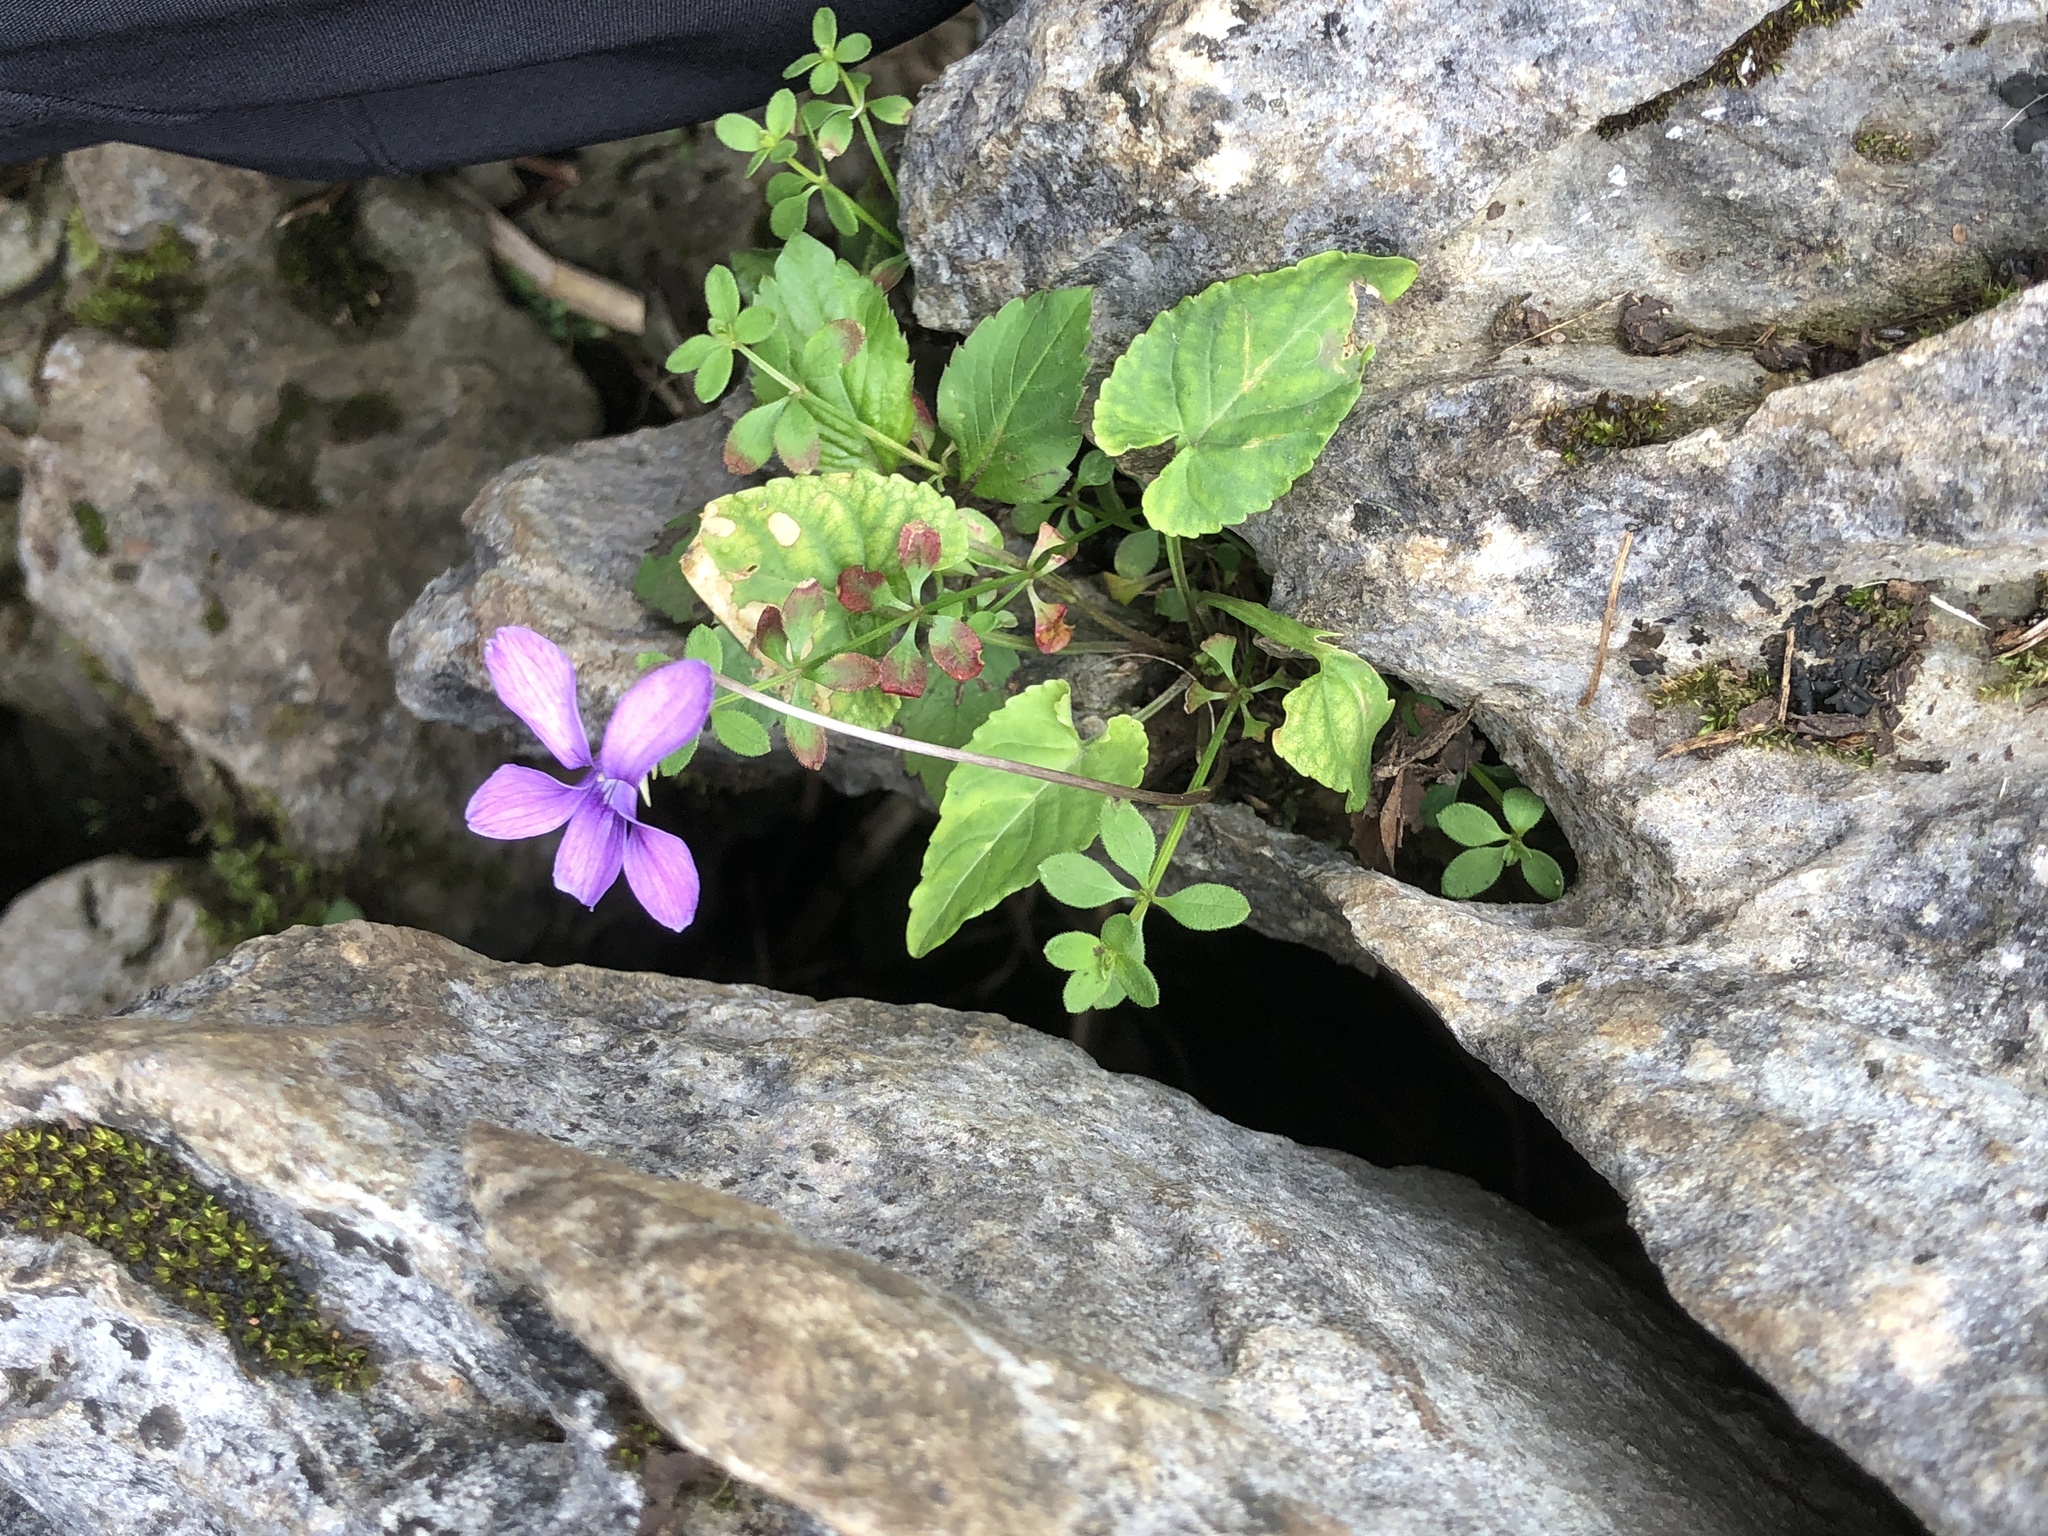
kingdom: Plantae
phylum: Tracheophyta
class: Magnoliopsida
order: Malpighiales
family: Violaceae
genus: Viola
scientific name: Viola philippica
